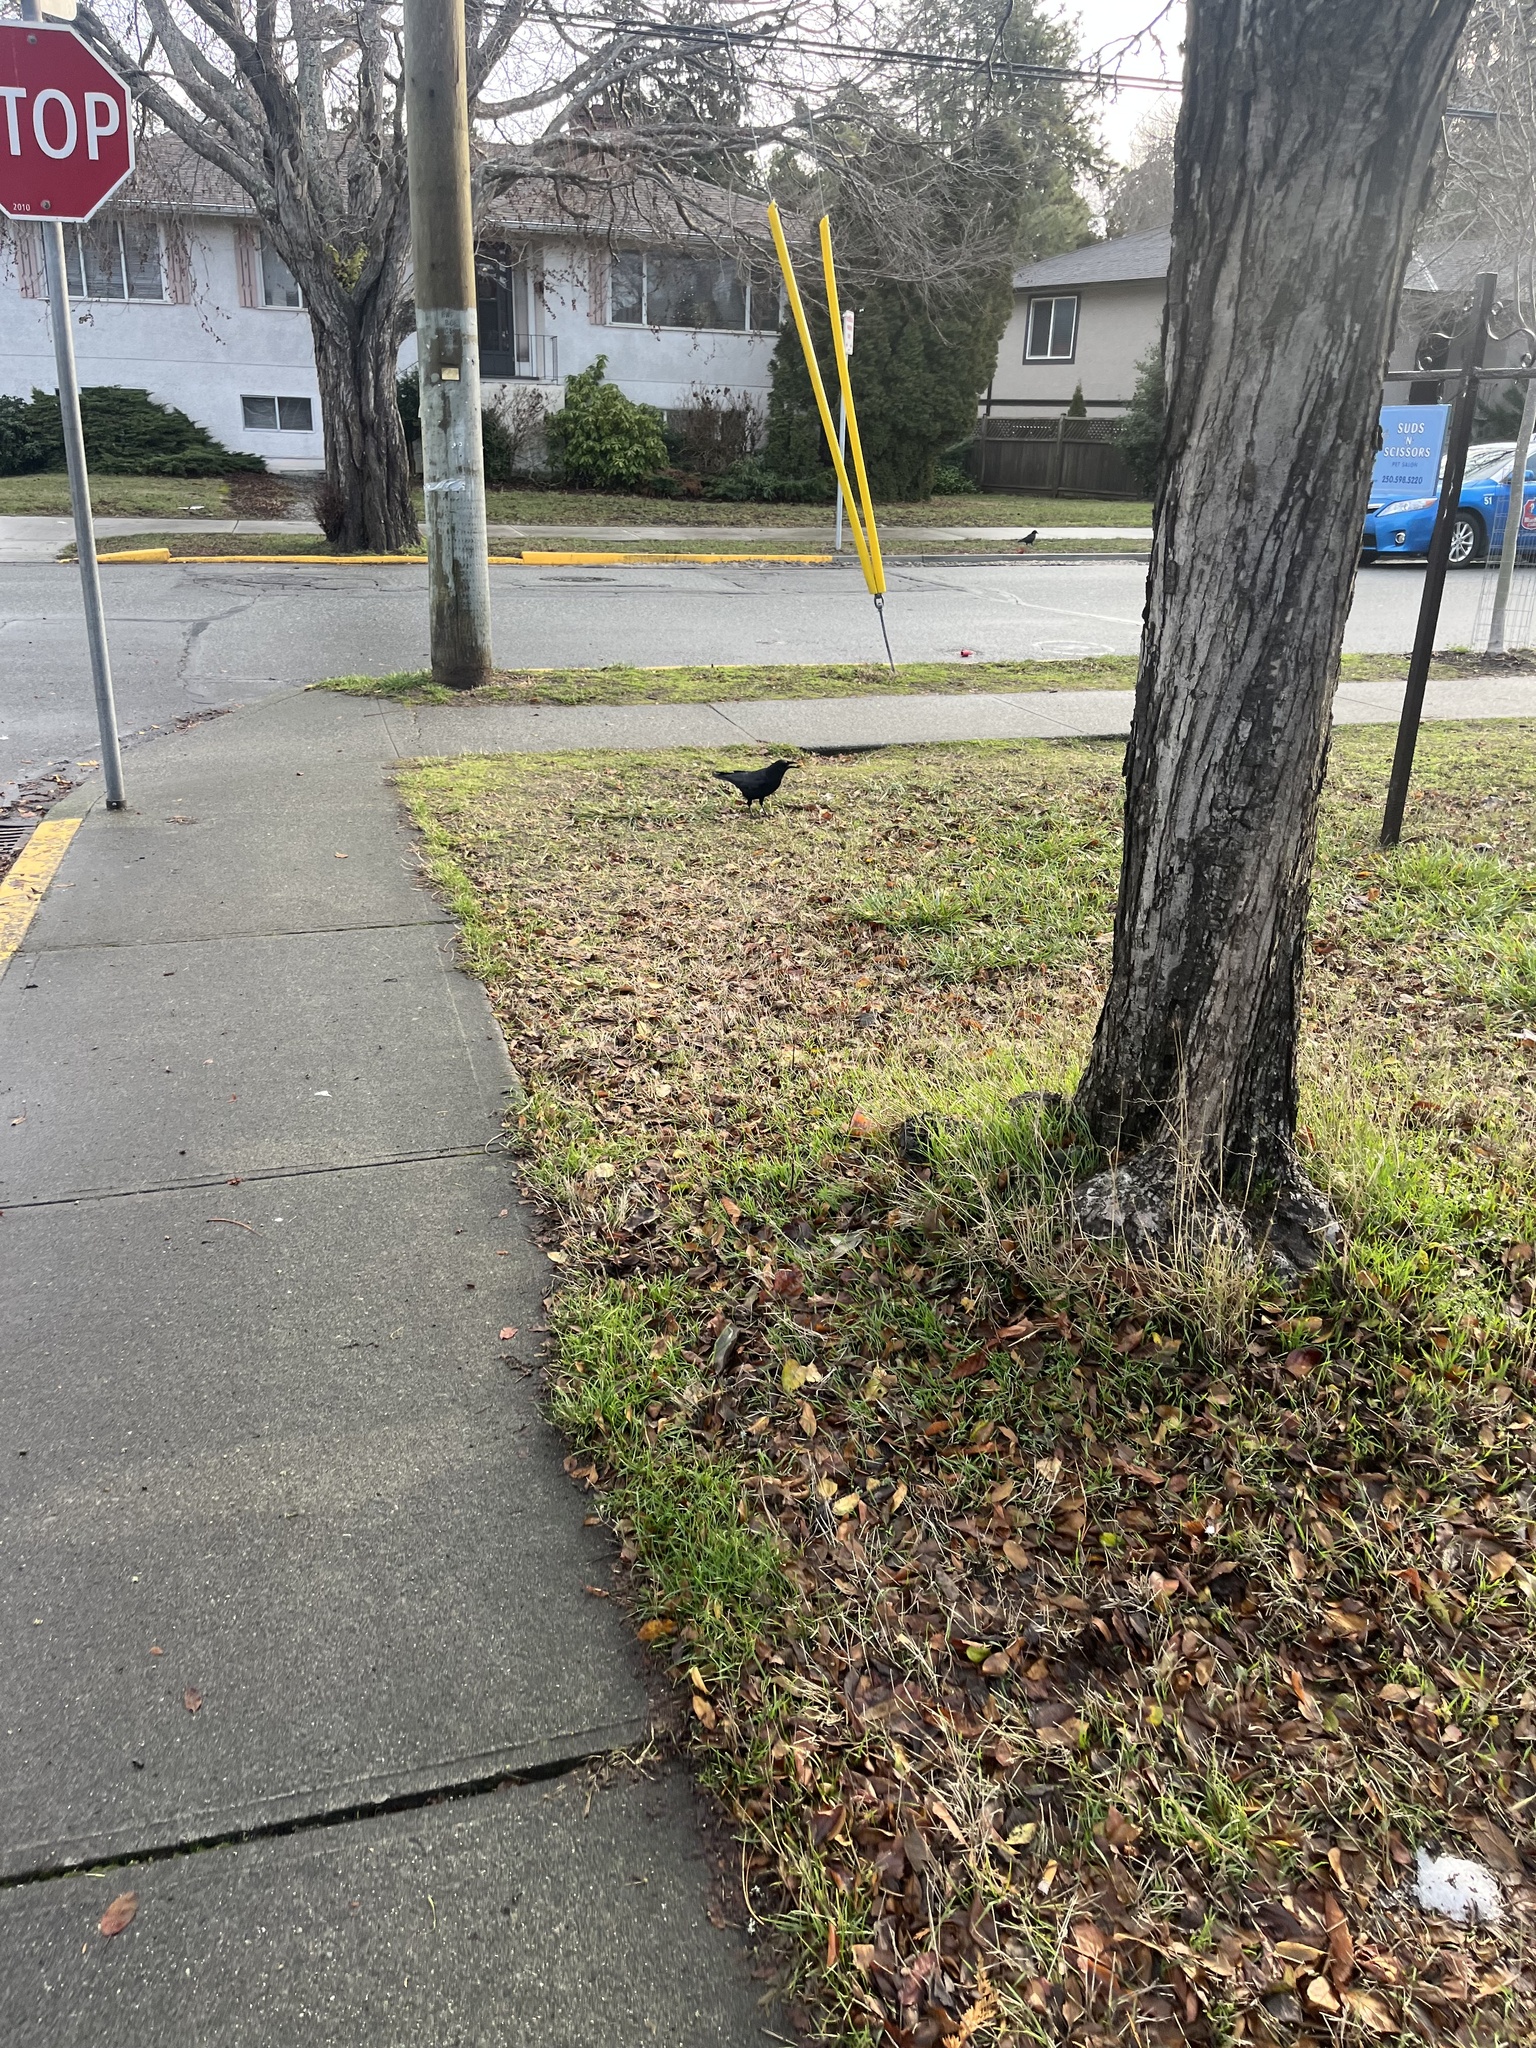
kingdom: Animalia
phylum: Chordata
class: Aves
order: Passeriformes
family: Corvidae
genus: Corvus
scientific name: Corvus brachyrhynchos
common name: American crow
